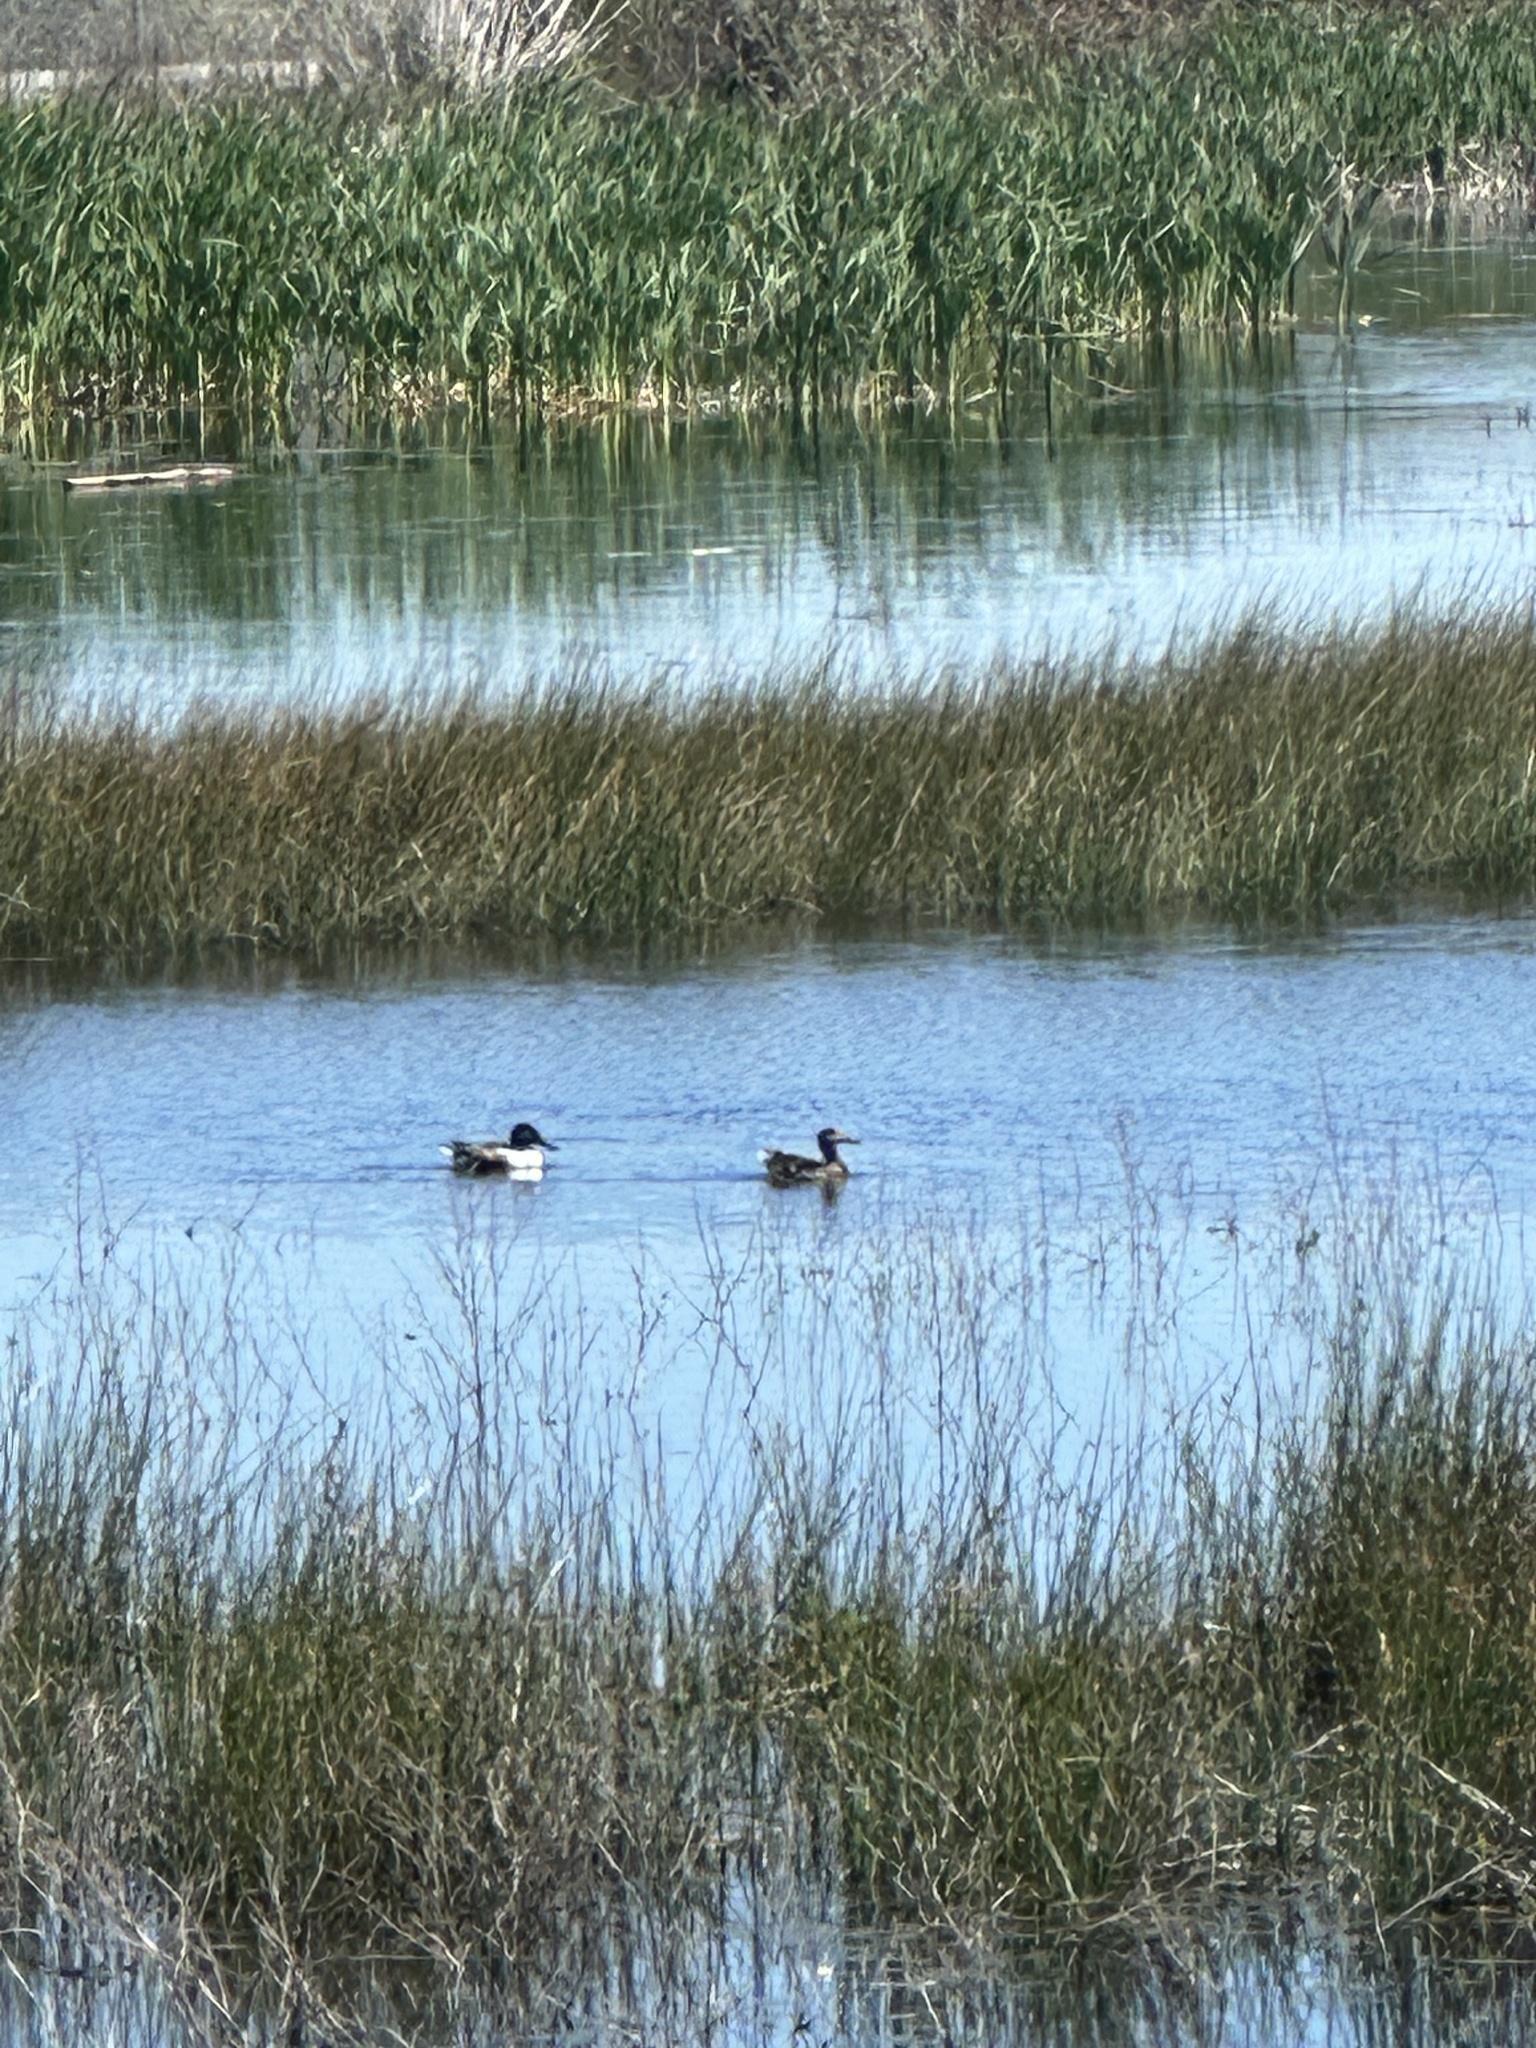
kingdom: Animalia
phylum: Chordata
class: Aves
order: Anseriformes
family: Anatidae
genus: Spatula
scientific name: Spatula clypeata
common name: Northern shoveler
